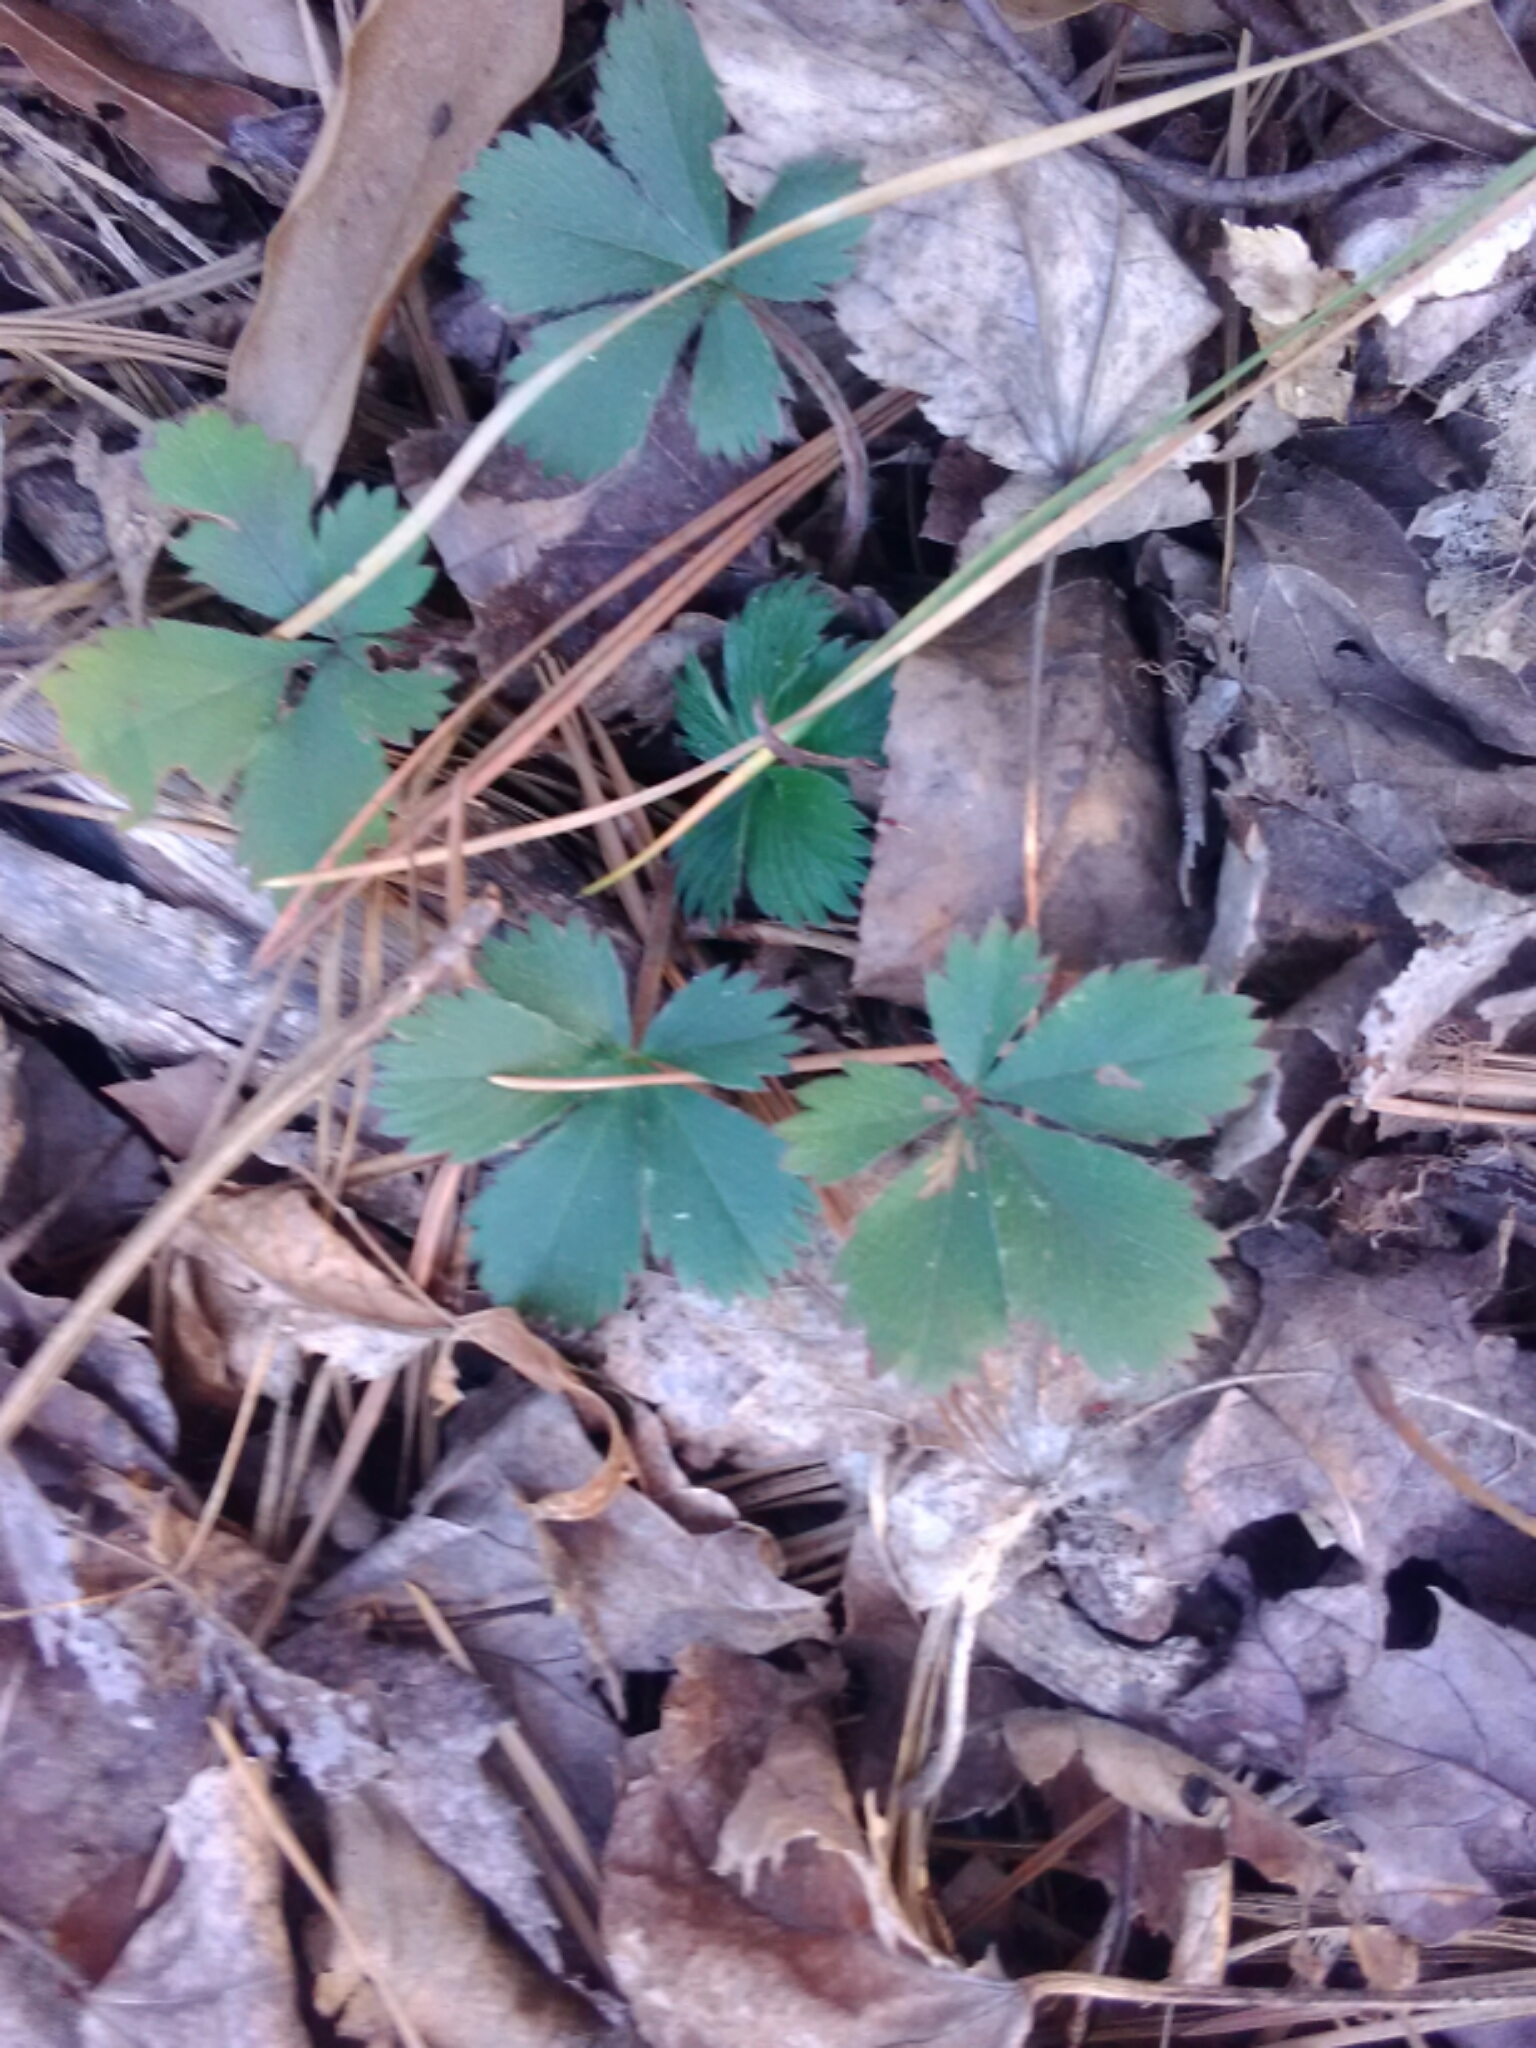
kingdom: Plantae
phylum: Tracheophyta
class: Magnoliopsida
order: Rosales
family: Rosaceae
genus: Potentilla
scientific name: Potentilla canadensis
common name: Canada cinquefoil
